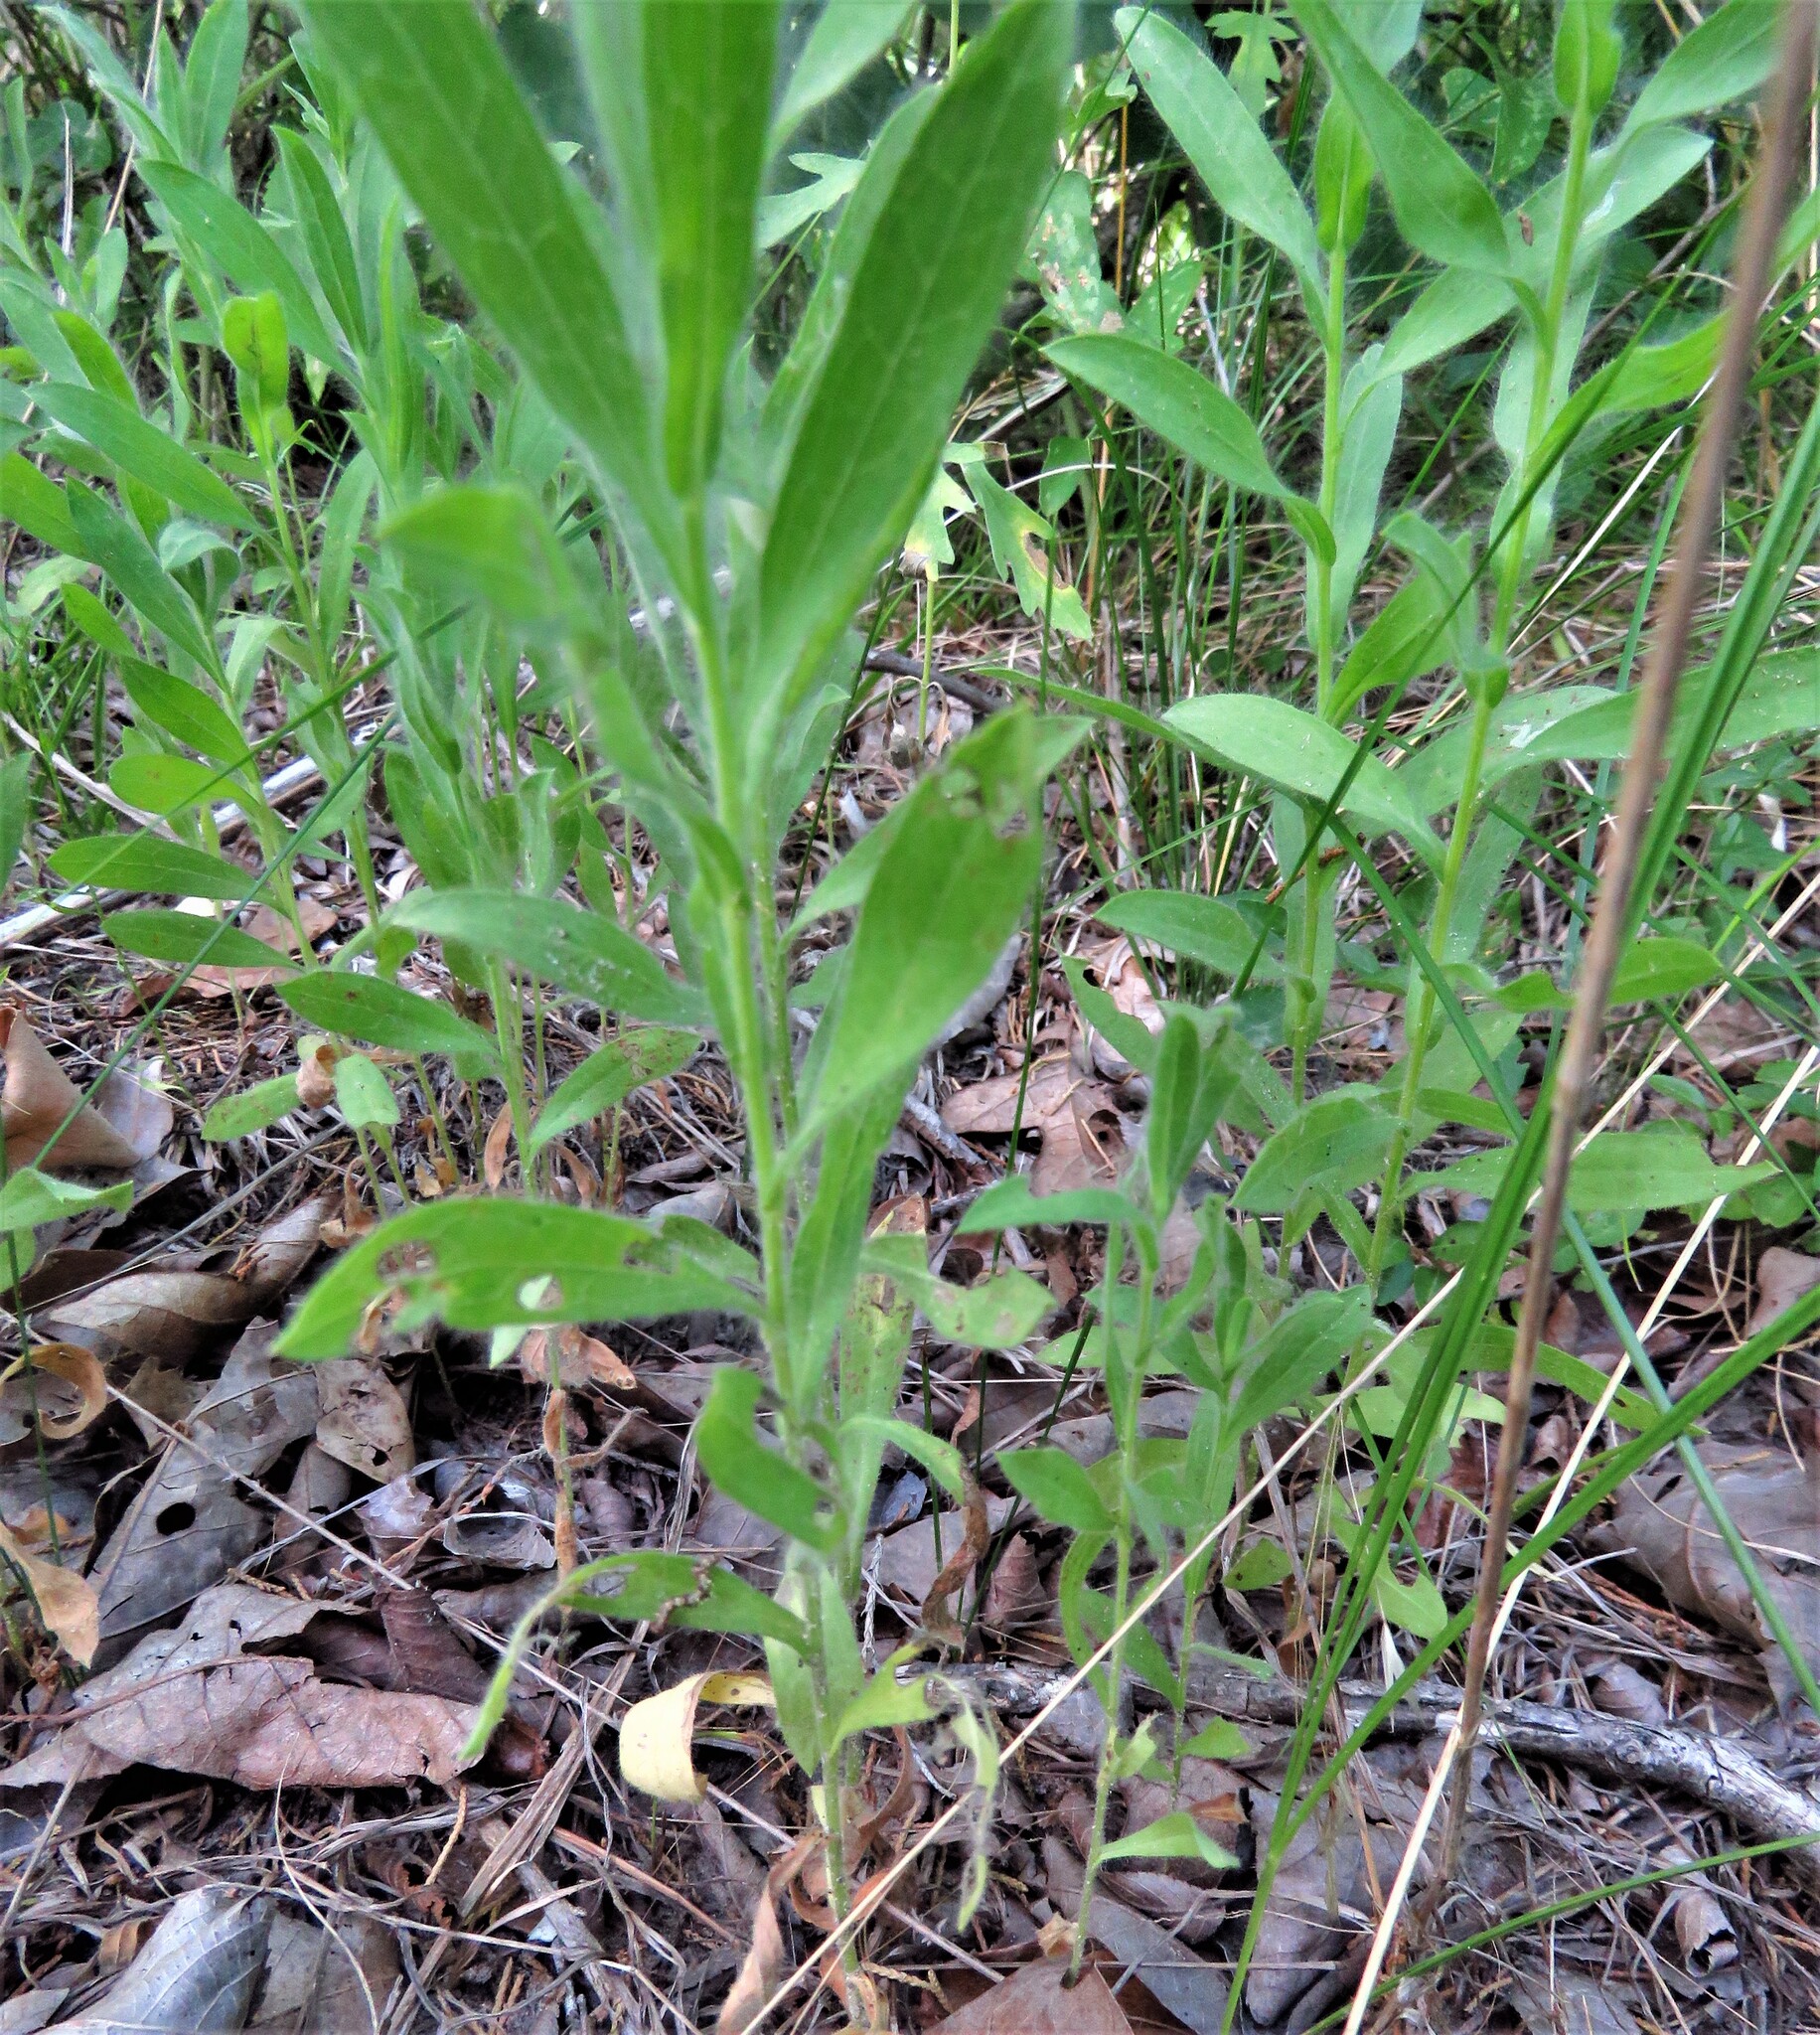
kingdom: Plantae
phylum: Tracheophyta
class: Magnoliopsida
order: Asterales
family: Asteraceae
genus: Bradburia
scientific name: Bradburia pilosa
